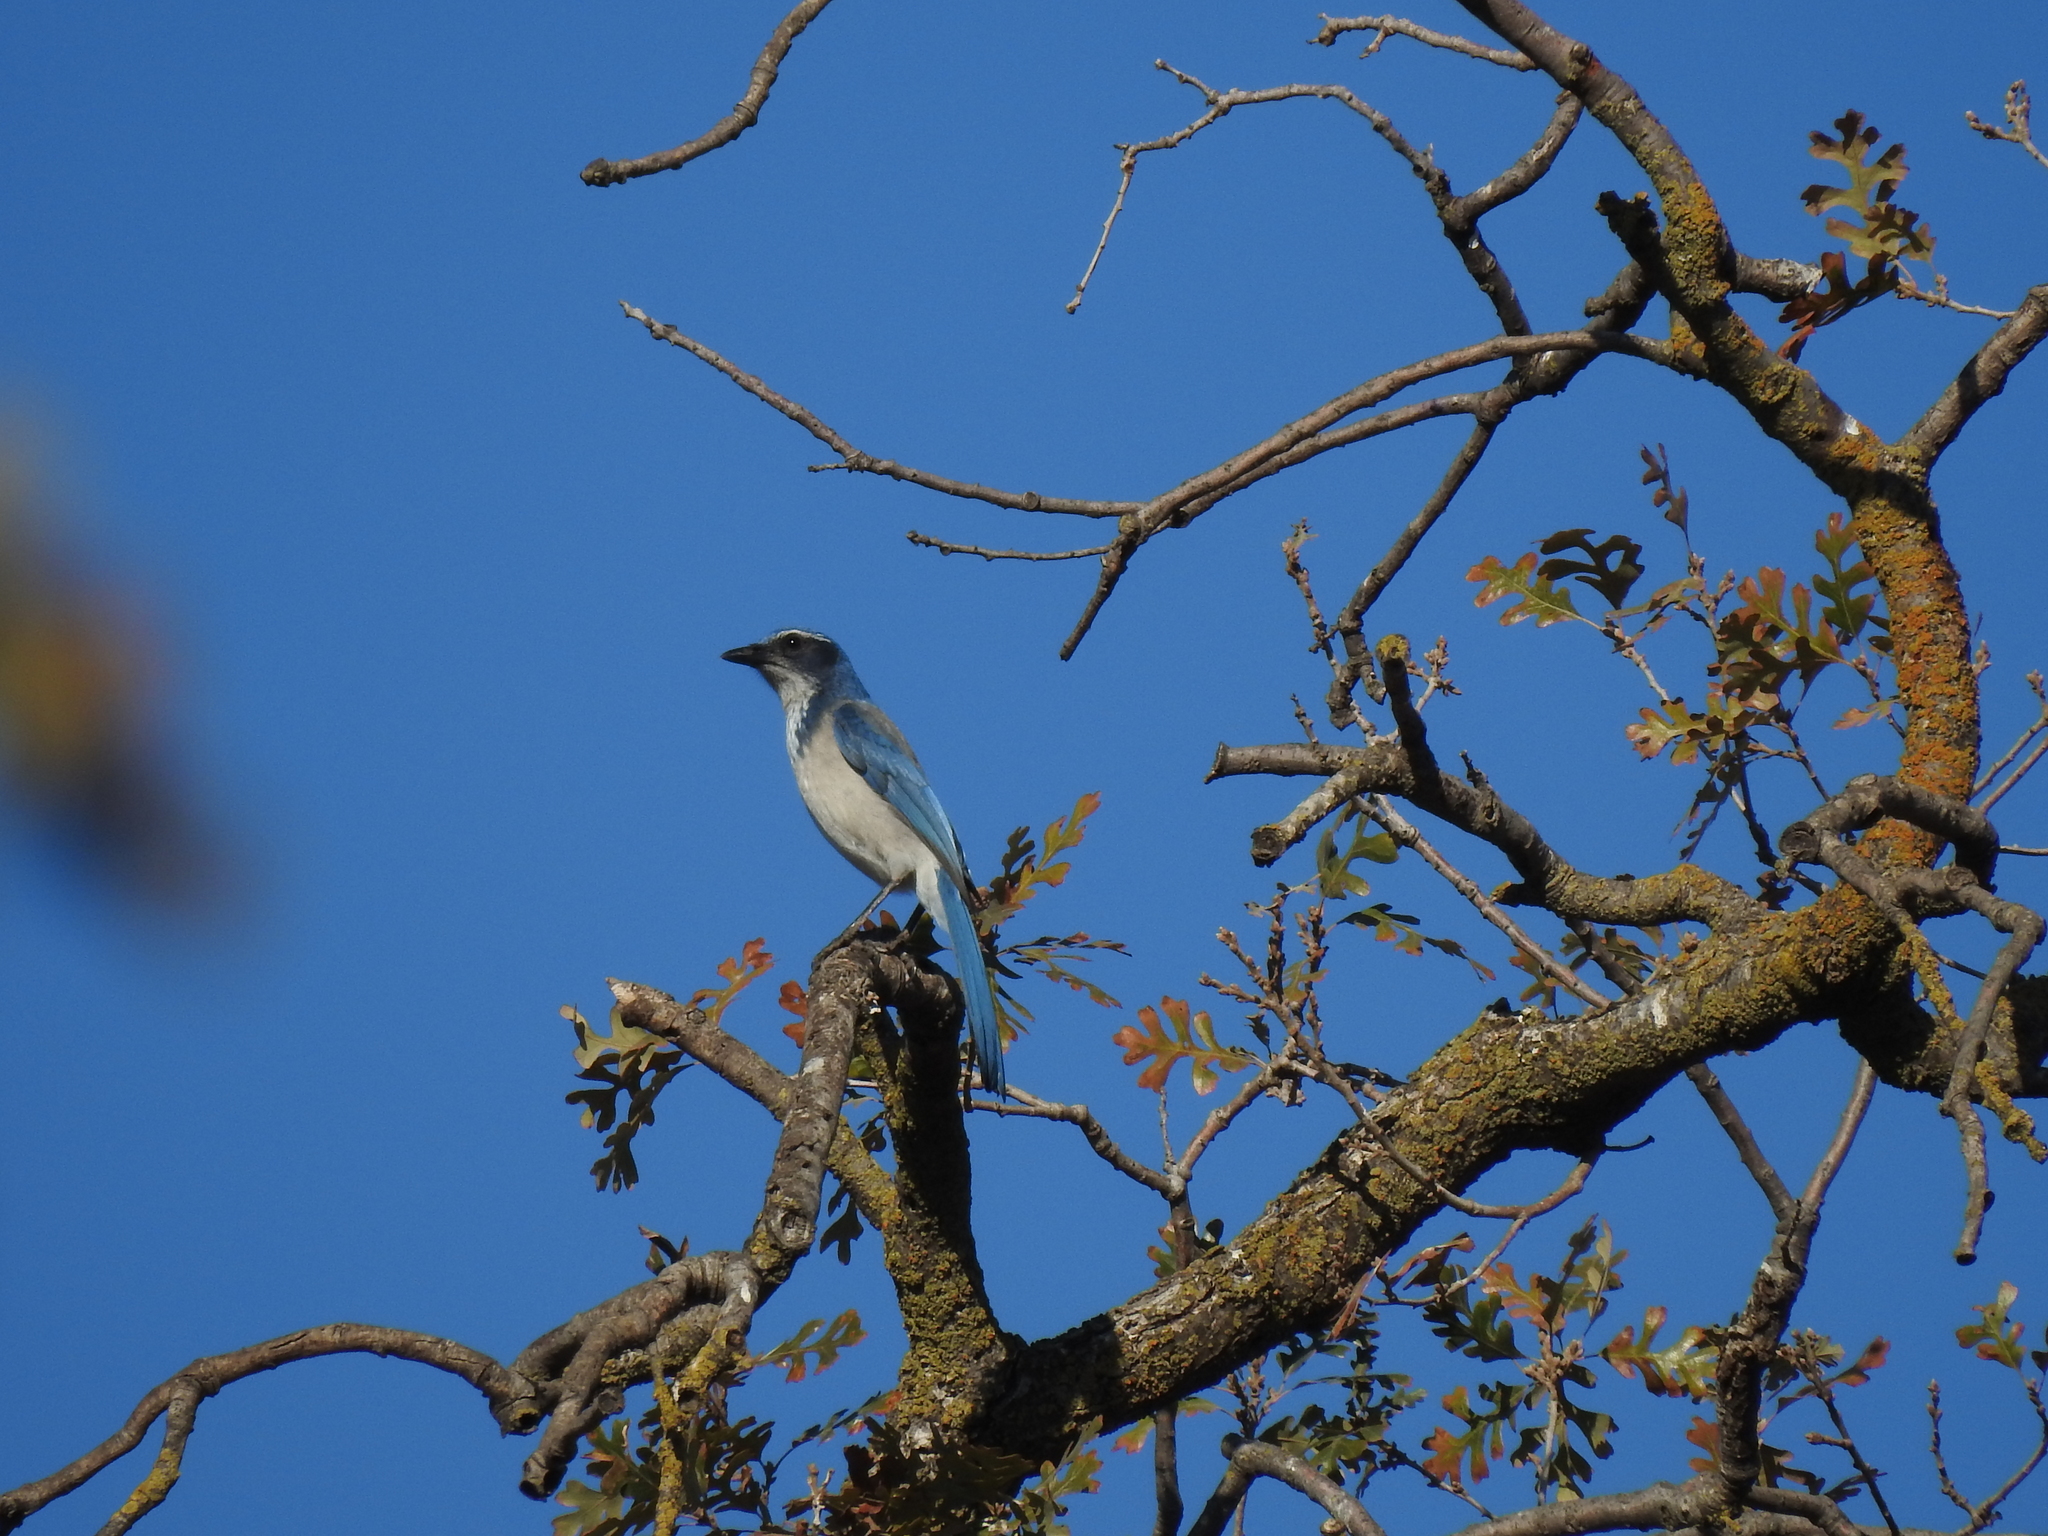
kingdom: Animalia
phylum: Chordata
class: Aves
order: Passeriformes
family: Corvidae
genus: Aphelocoma
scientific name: Aphelocoma californica
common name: California scrub-jay
